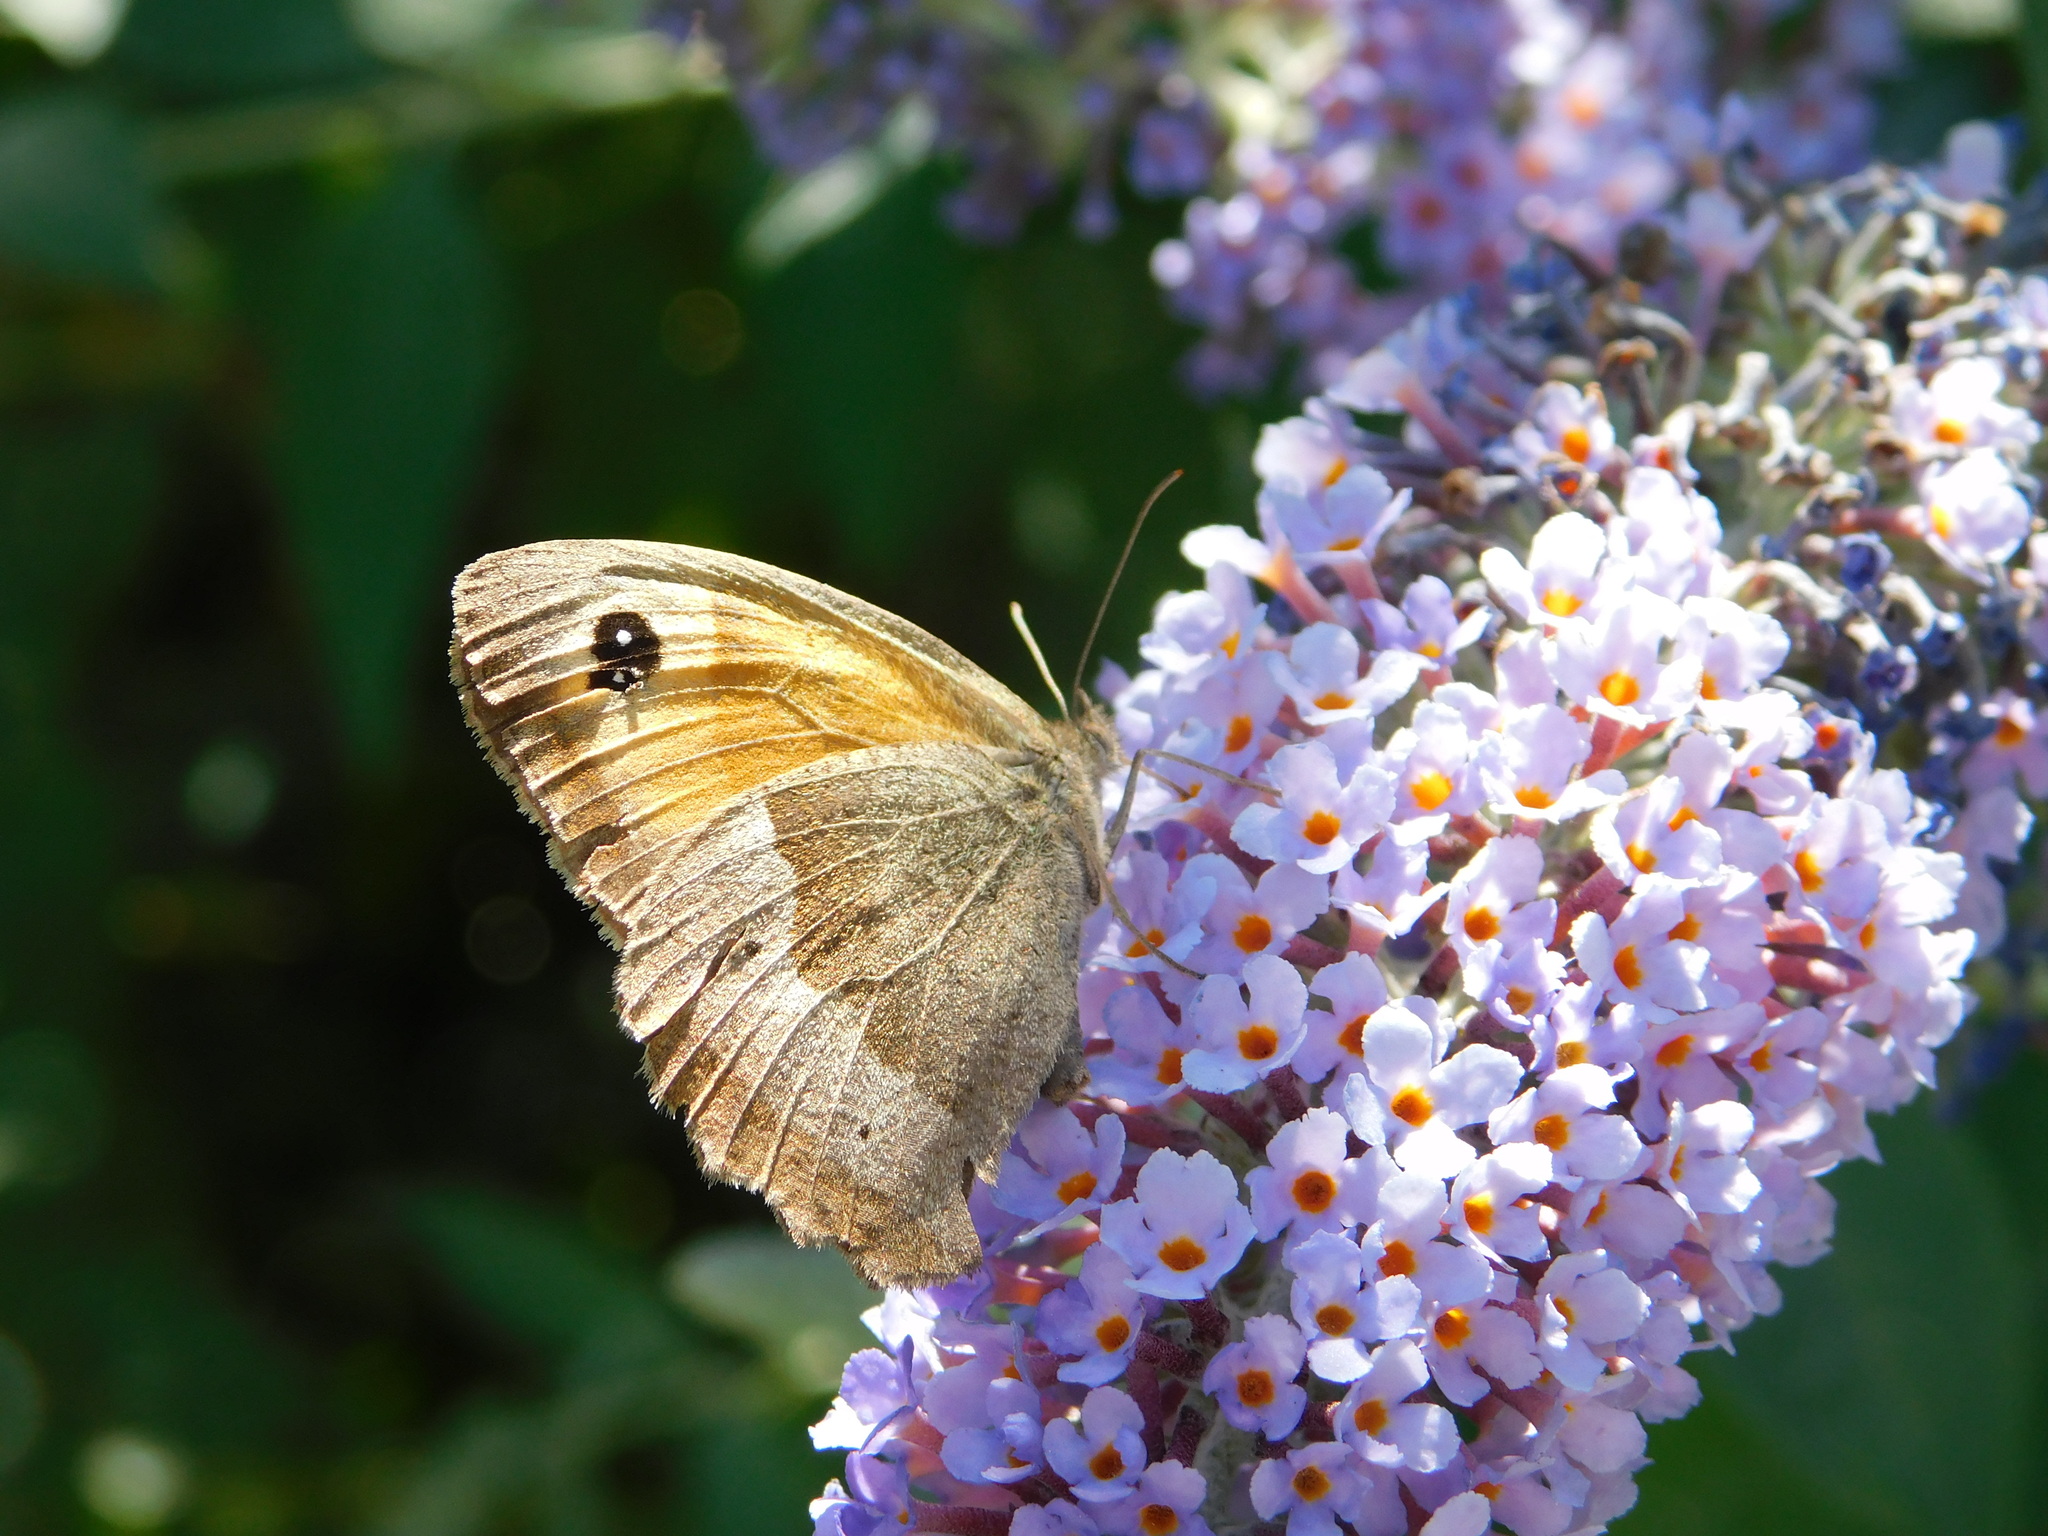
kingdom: Animalia
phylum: Arthropoda
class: Insecta
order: Lepidoptera
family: Nymphalidae
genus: Maniola
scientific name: Maniola jurtina
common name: Meadow brown
